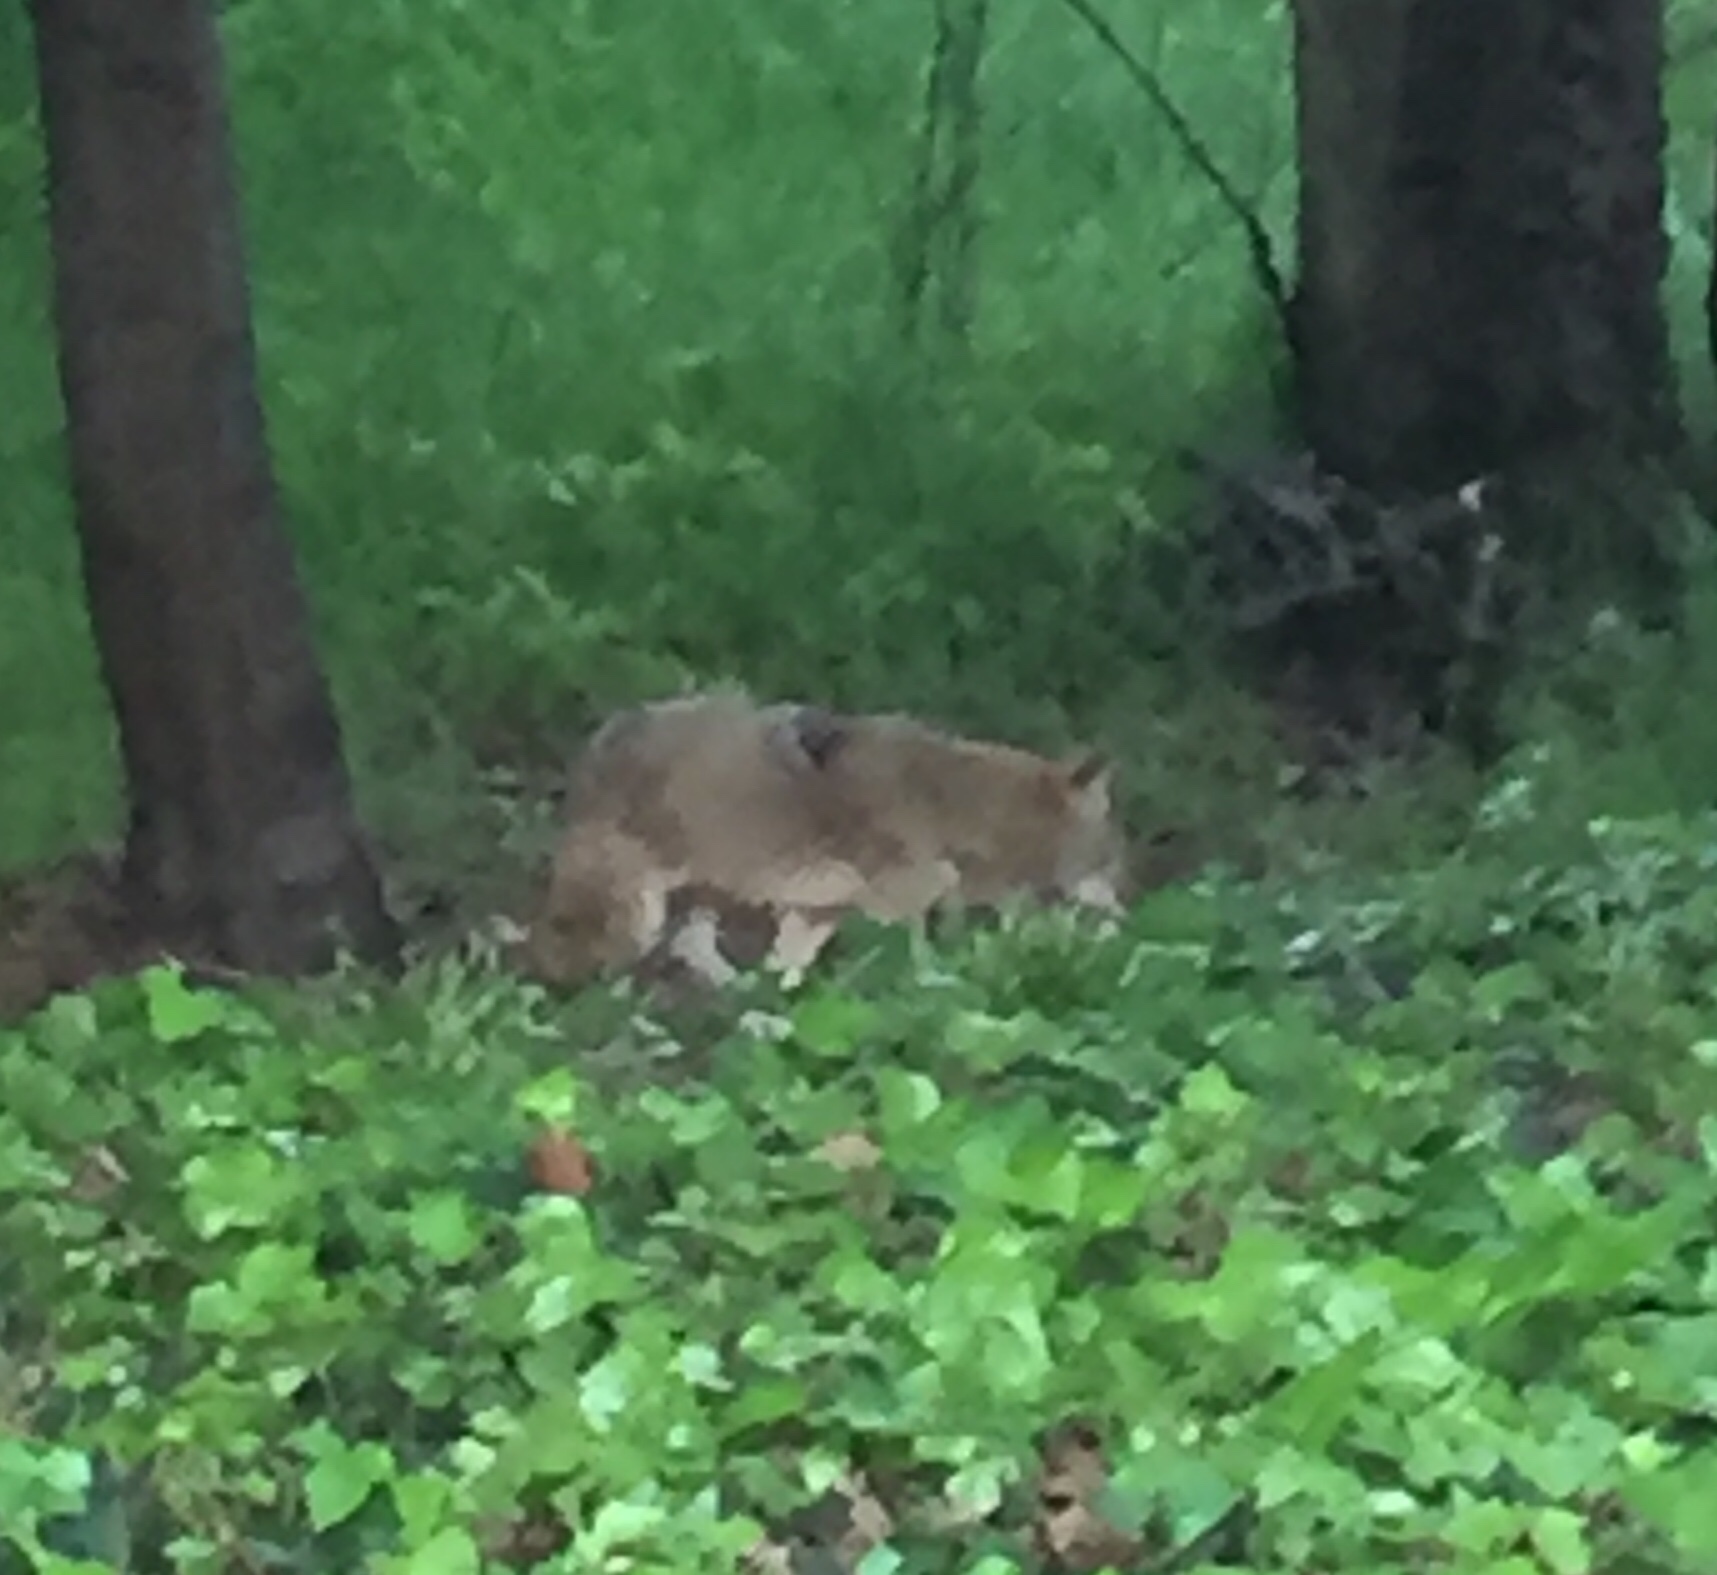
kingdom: Animalia
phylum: Chordata
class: Mammalia
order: Carnivora
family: Canidae
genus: Canis
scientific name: Canis latrans
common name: Coyote
